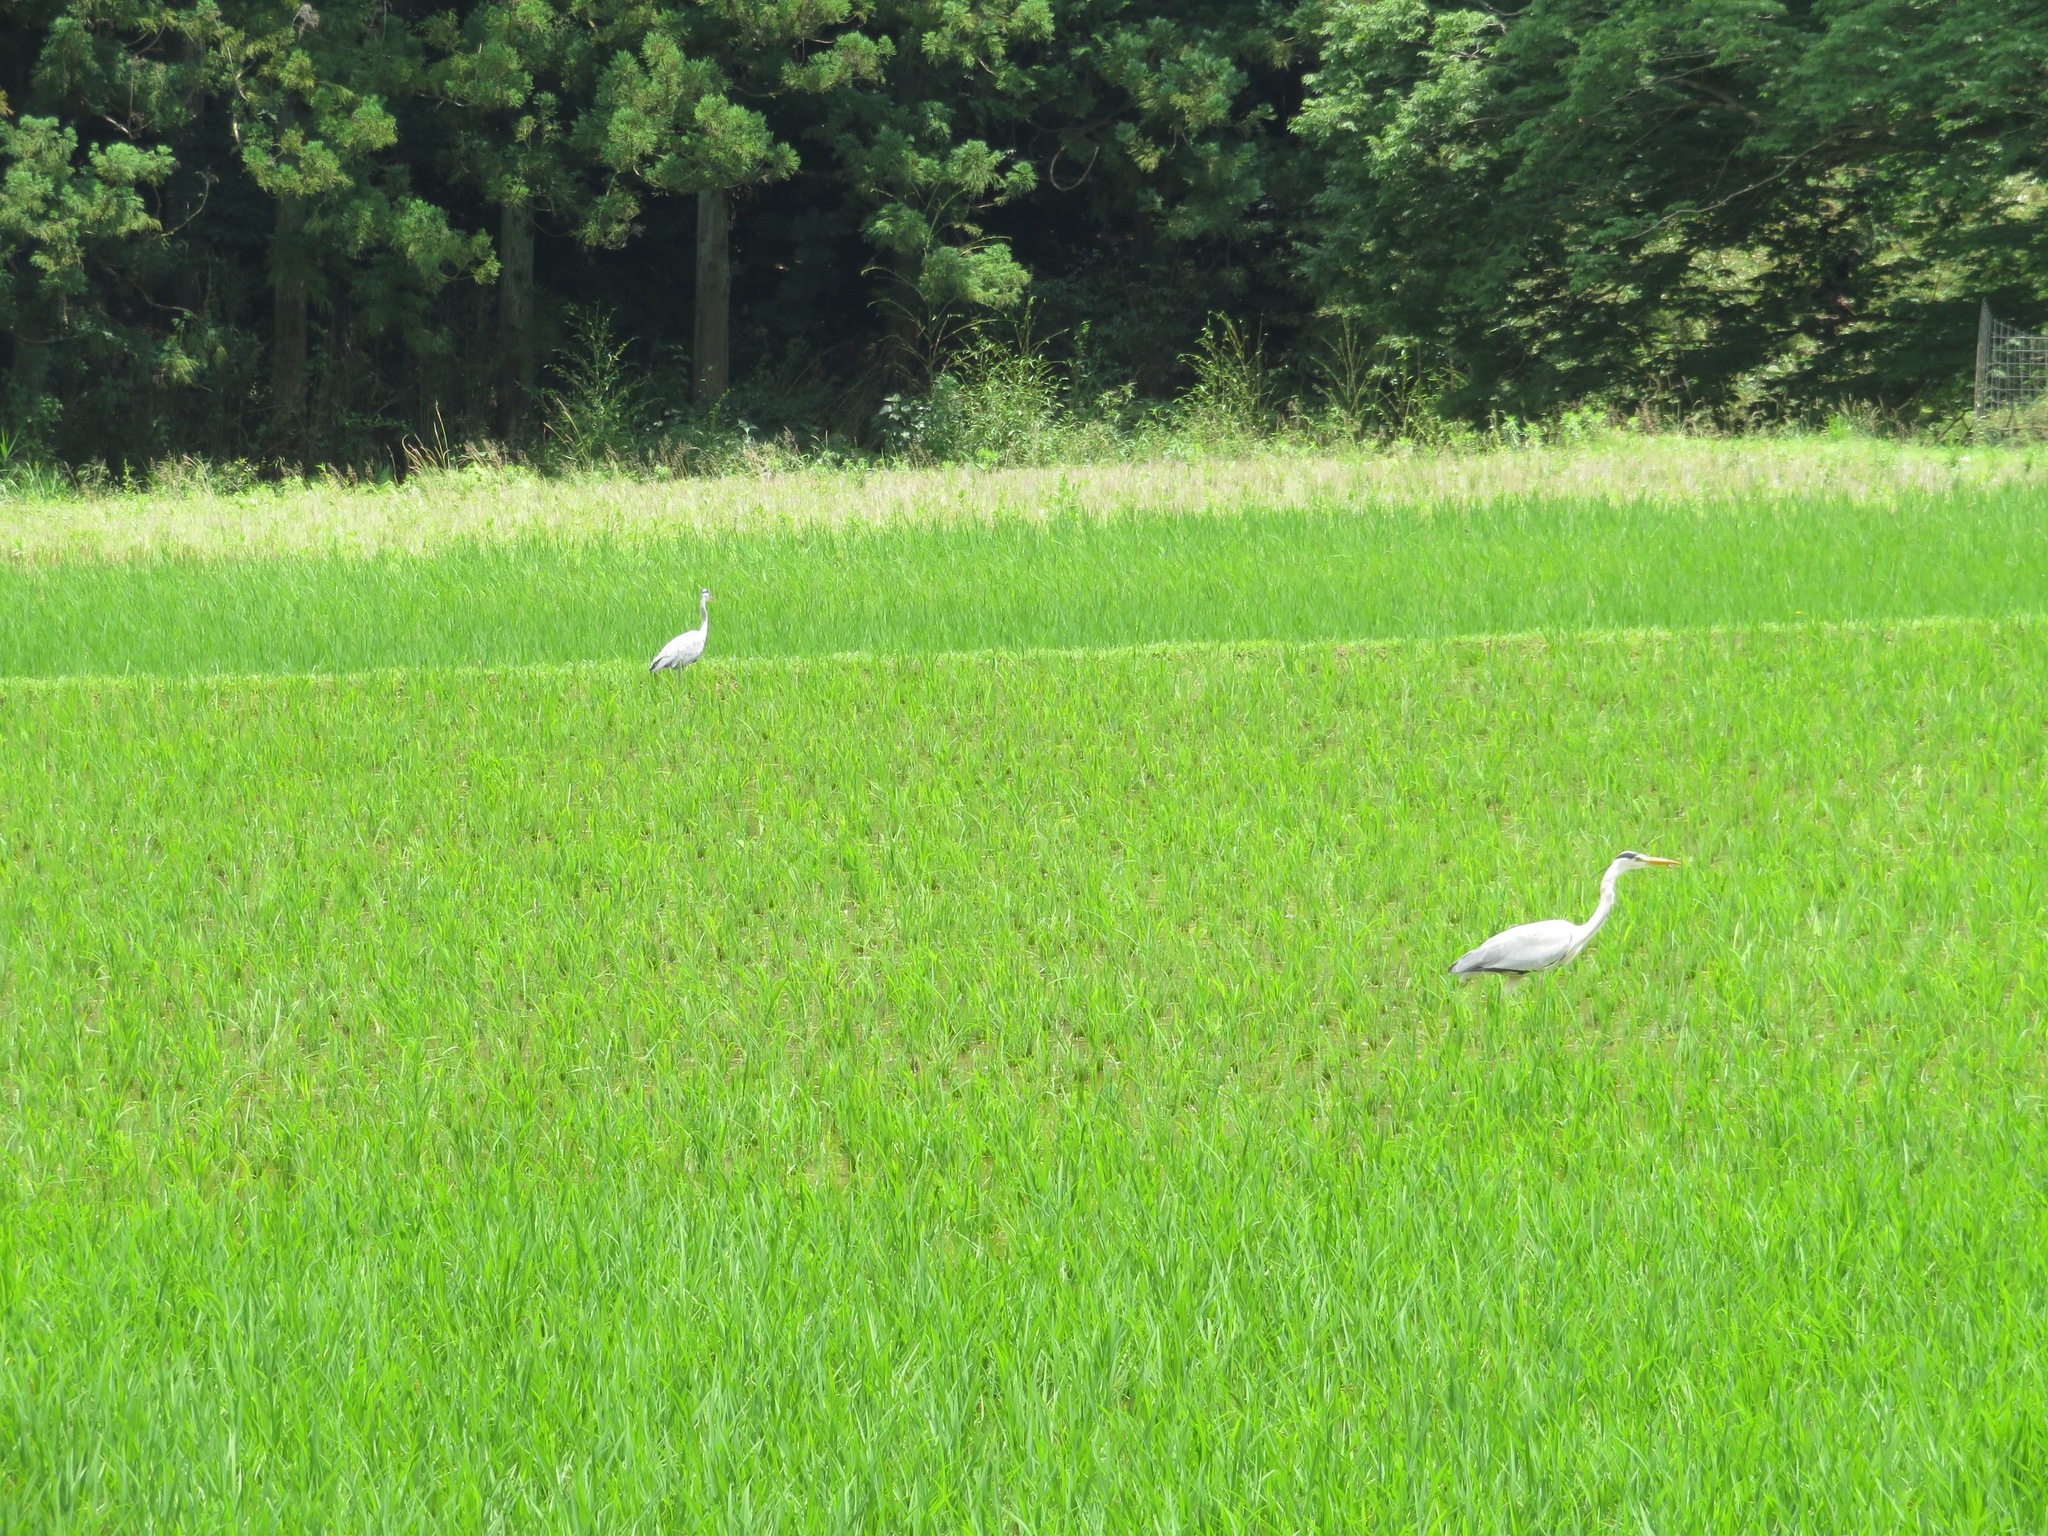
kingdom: Animalia
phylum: Chordata
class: Aves
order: Pelecaniformes
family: Ardeidae
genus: Ardea
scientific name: Ardea cinerea
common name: Grey heron
